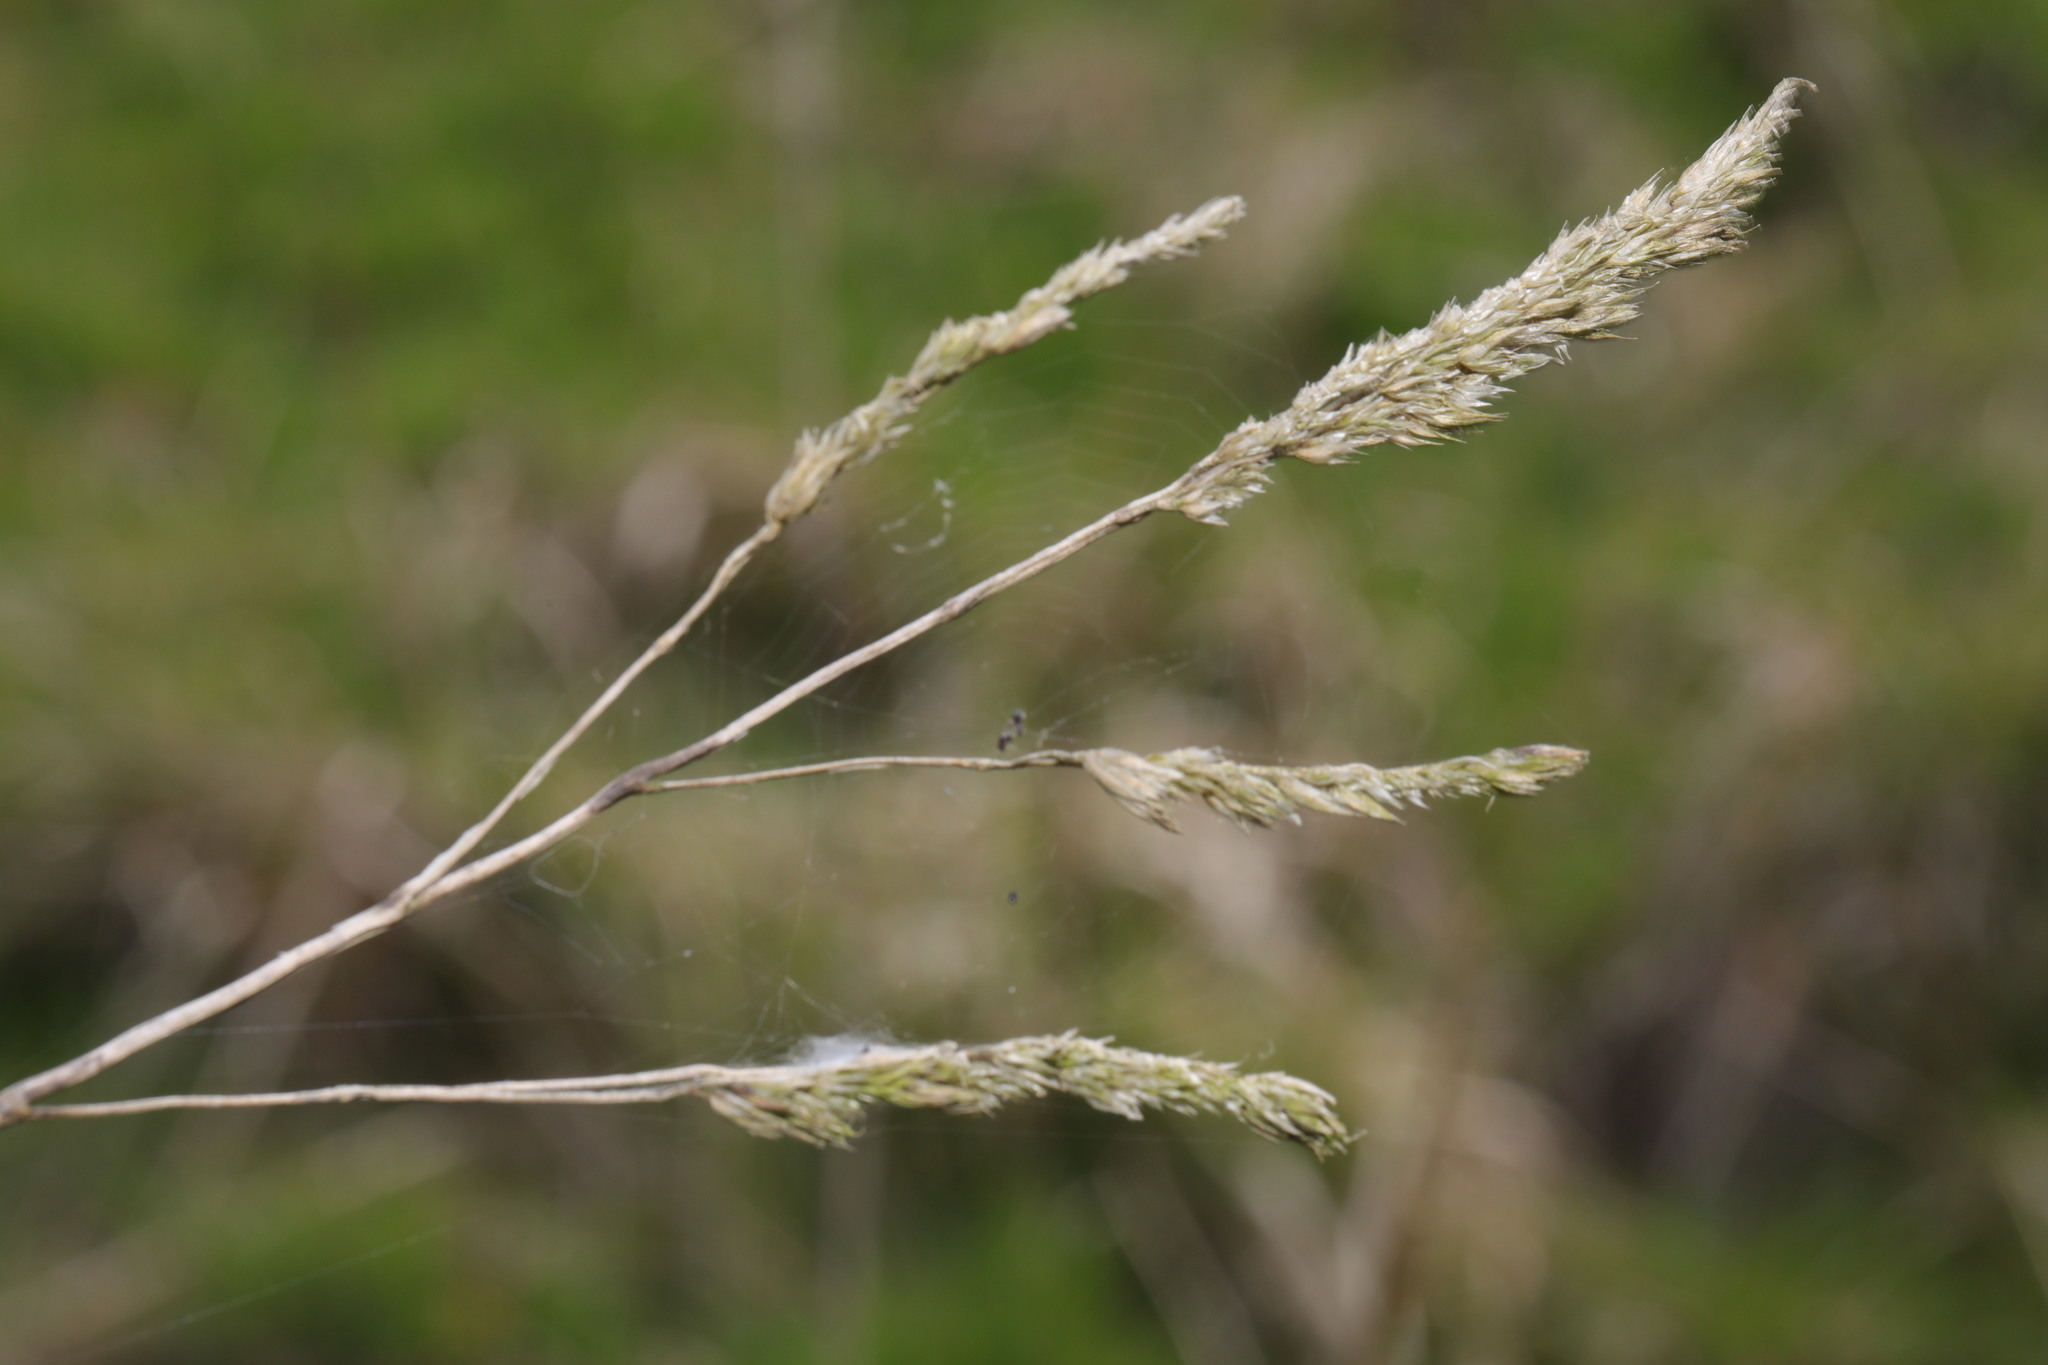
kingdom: Plantae
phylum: Tracheophyta
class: Liliopsida
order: Poales
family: Poaceae
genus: Dactylis
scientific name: Dactylis glomerata
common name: Orchardgrass
